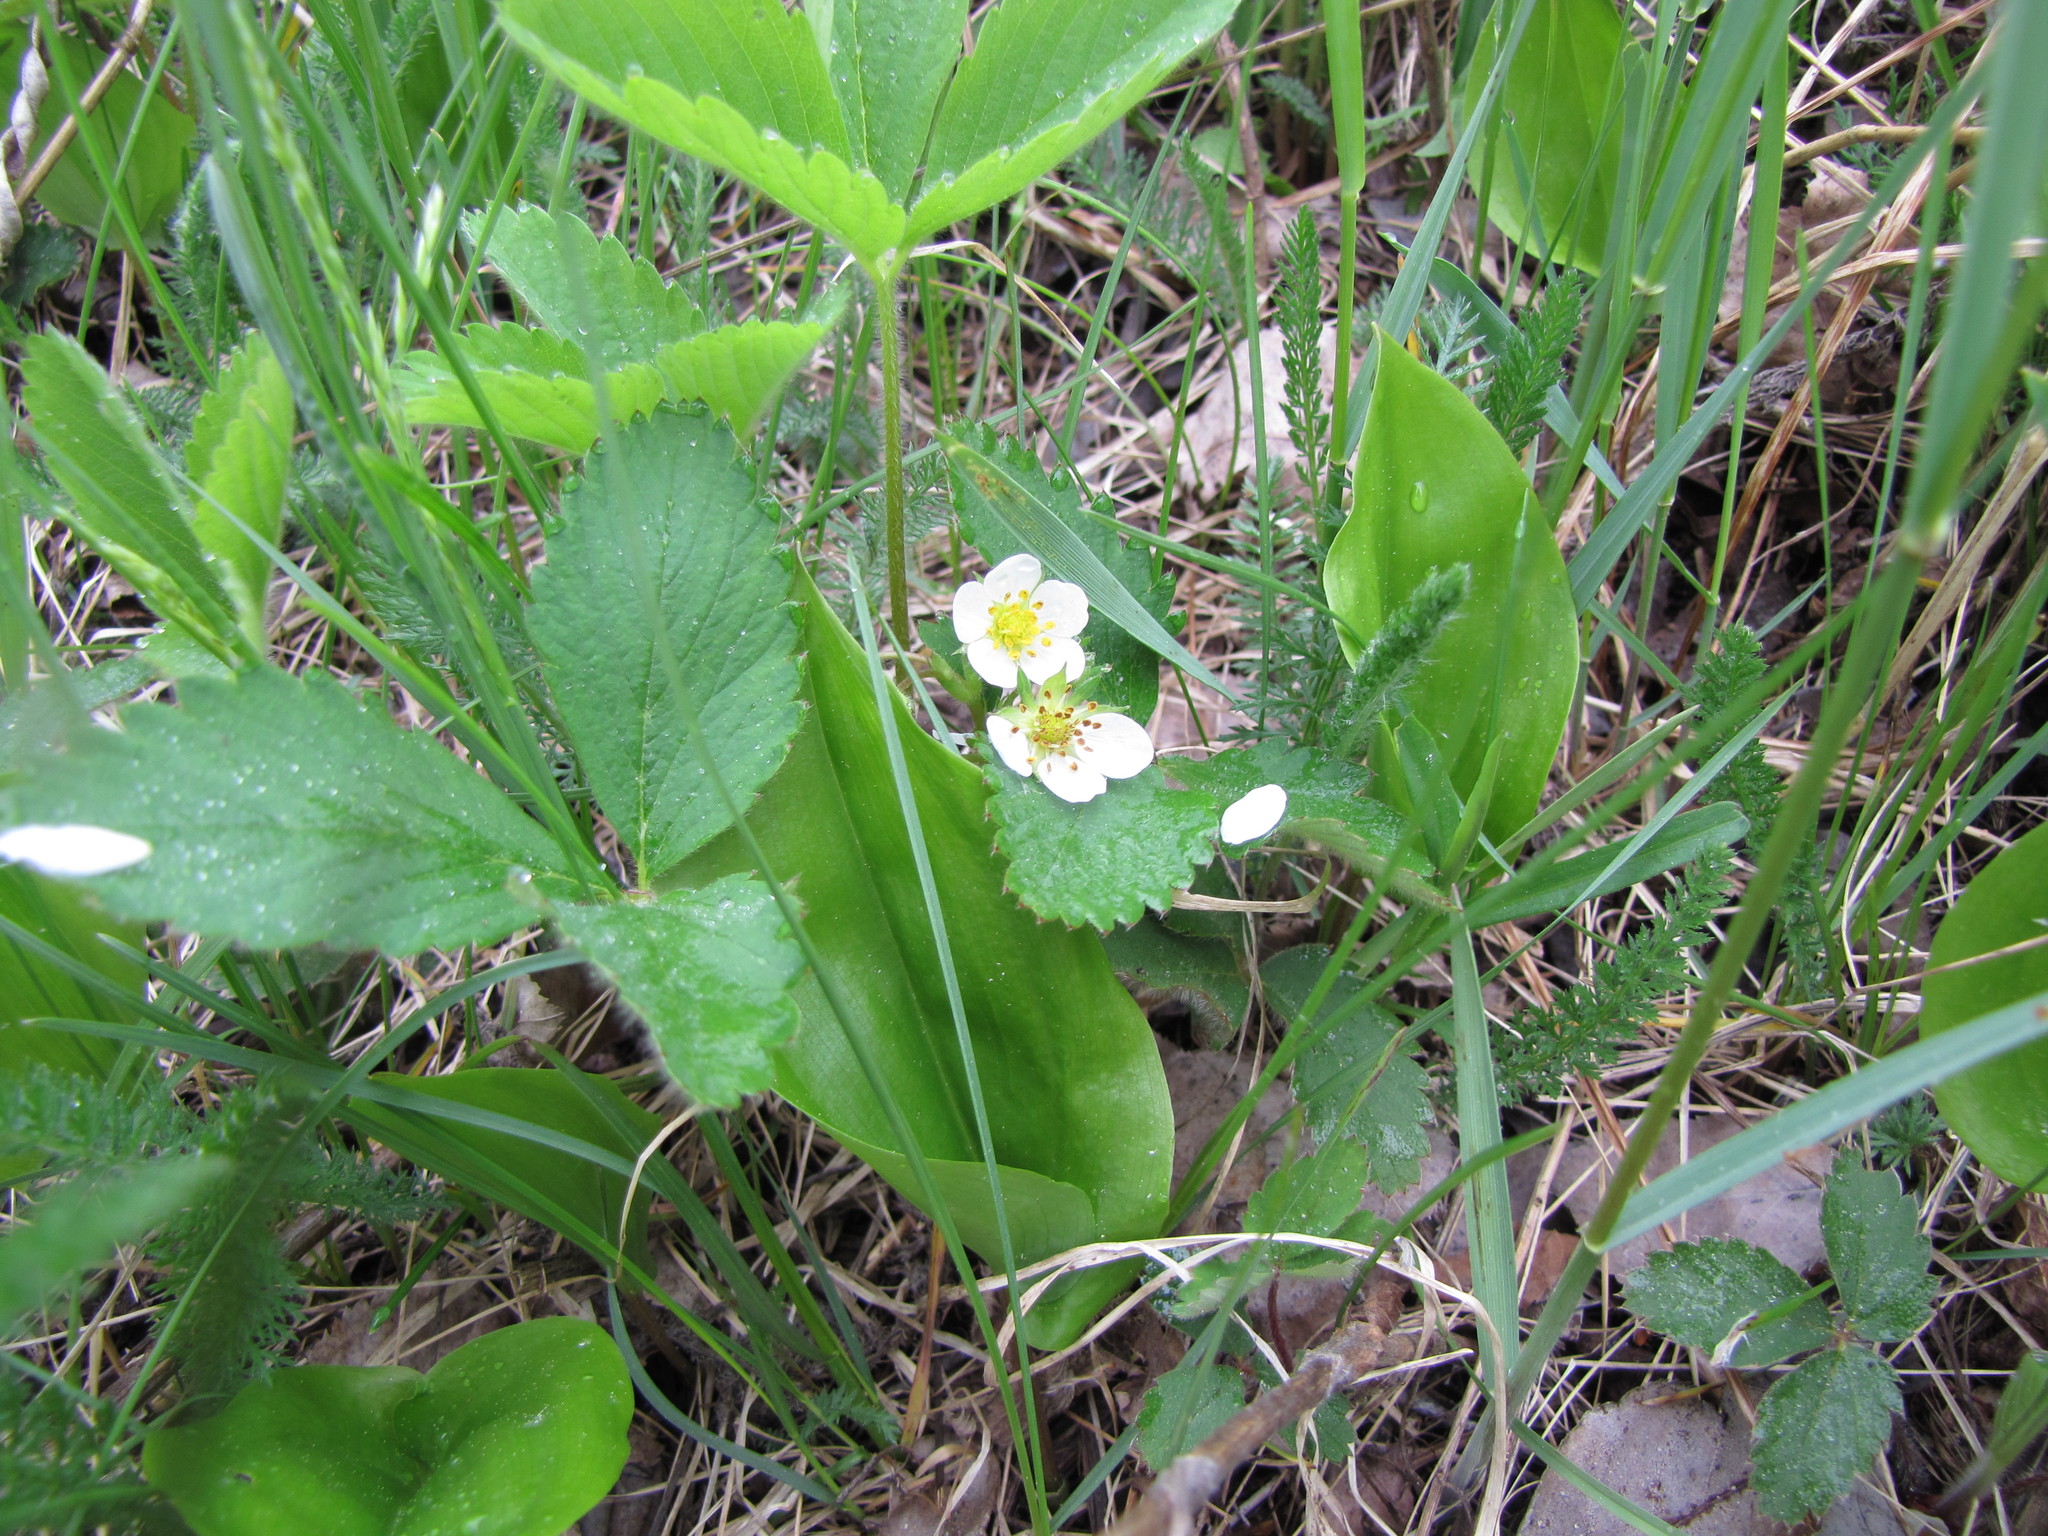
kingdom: Plantae
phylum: Tracheophyta
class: Magnoliopsida
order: Rosales
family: Rosaceae
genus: Fragaria
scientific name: Fragaria virginiana
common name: Thickleaved wild strawberry
